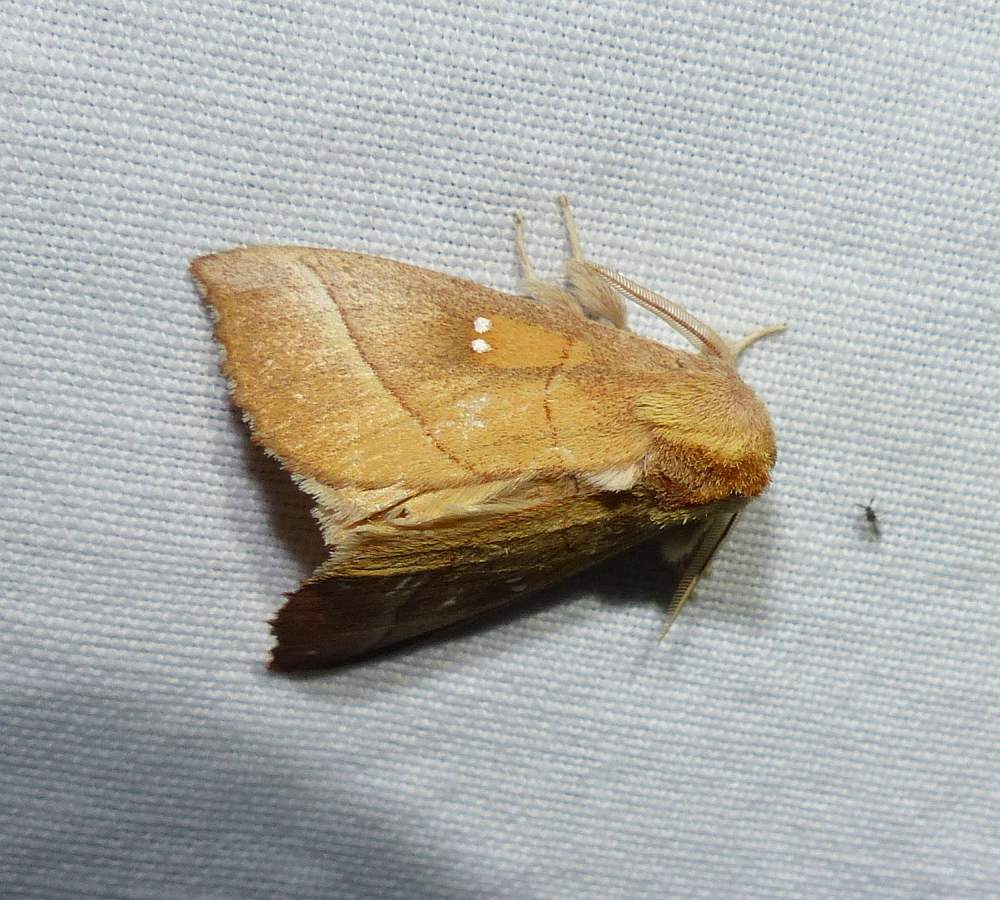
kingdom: Animalia
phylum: Arthropoda
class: Insecta
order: Lepidoptera
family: Notodontidae
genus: Nadata
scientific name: Nadata gibbosa
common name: White-dotted prominent
